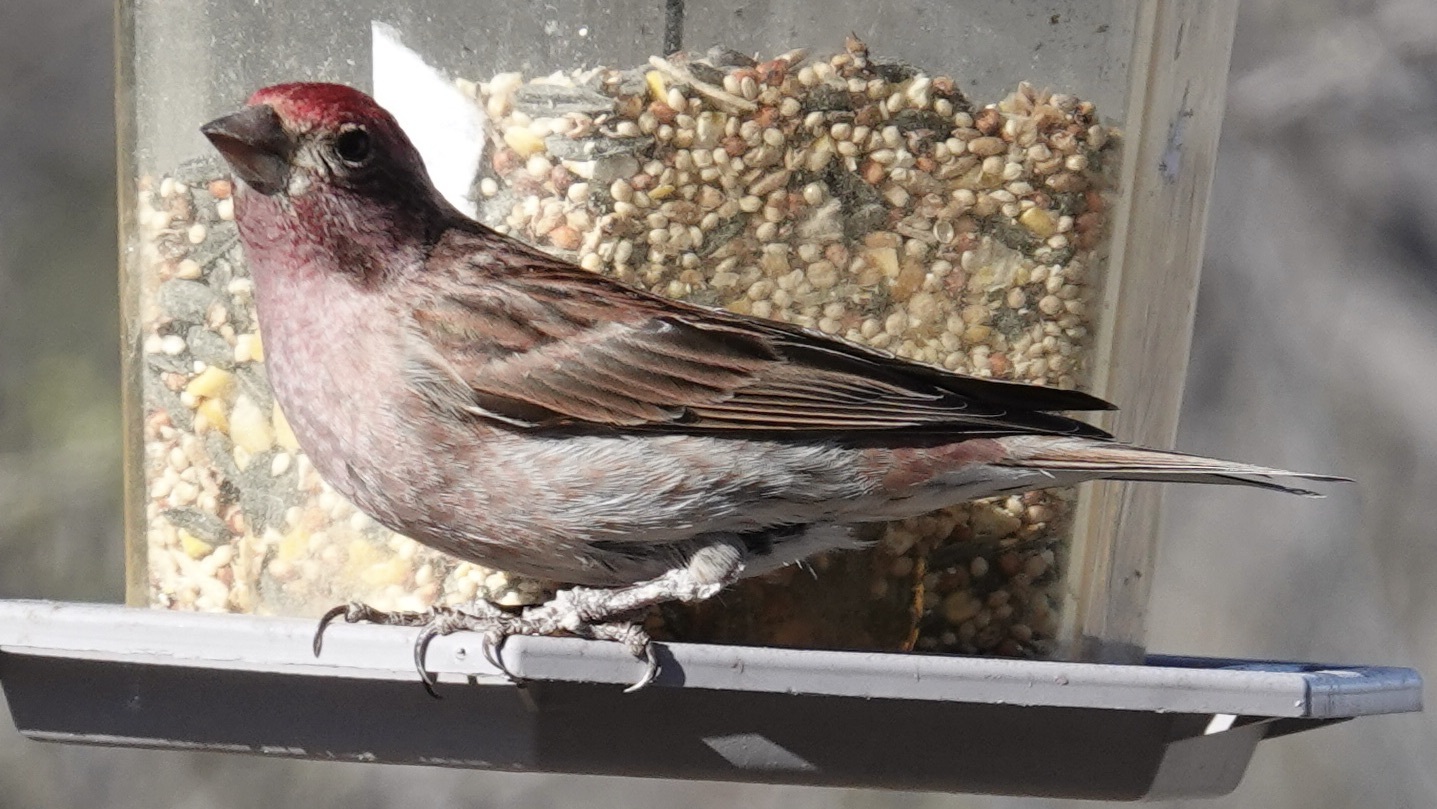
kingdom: Animalia
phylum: Chordata
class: Aves
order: Passeriformes
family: Fringillidae
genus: Haemorhous
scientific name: Haemorhous cassinii
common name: Cassin's finch
